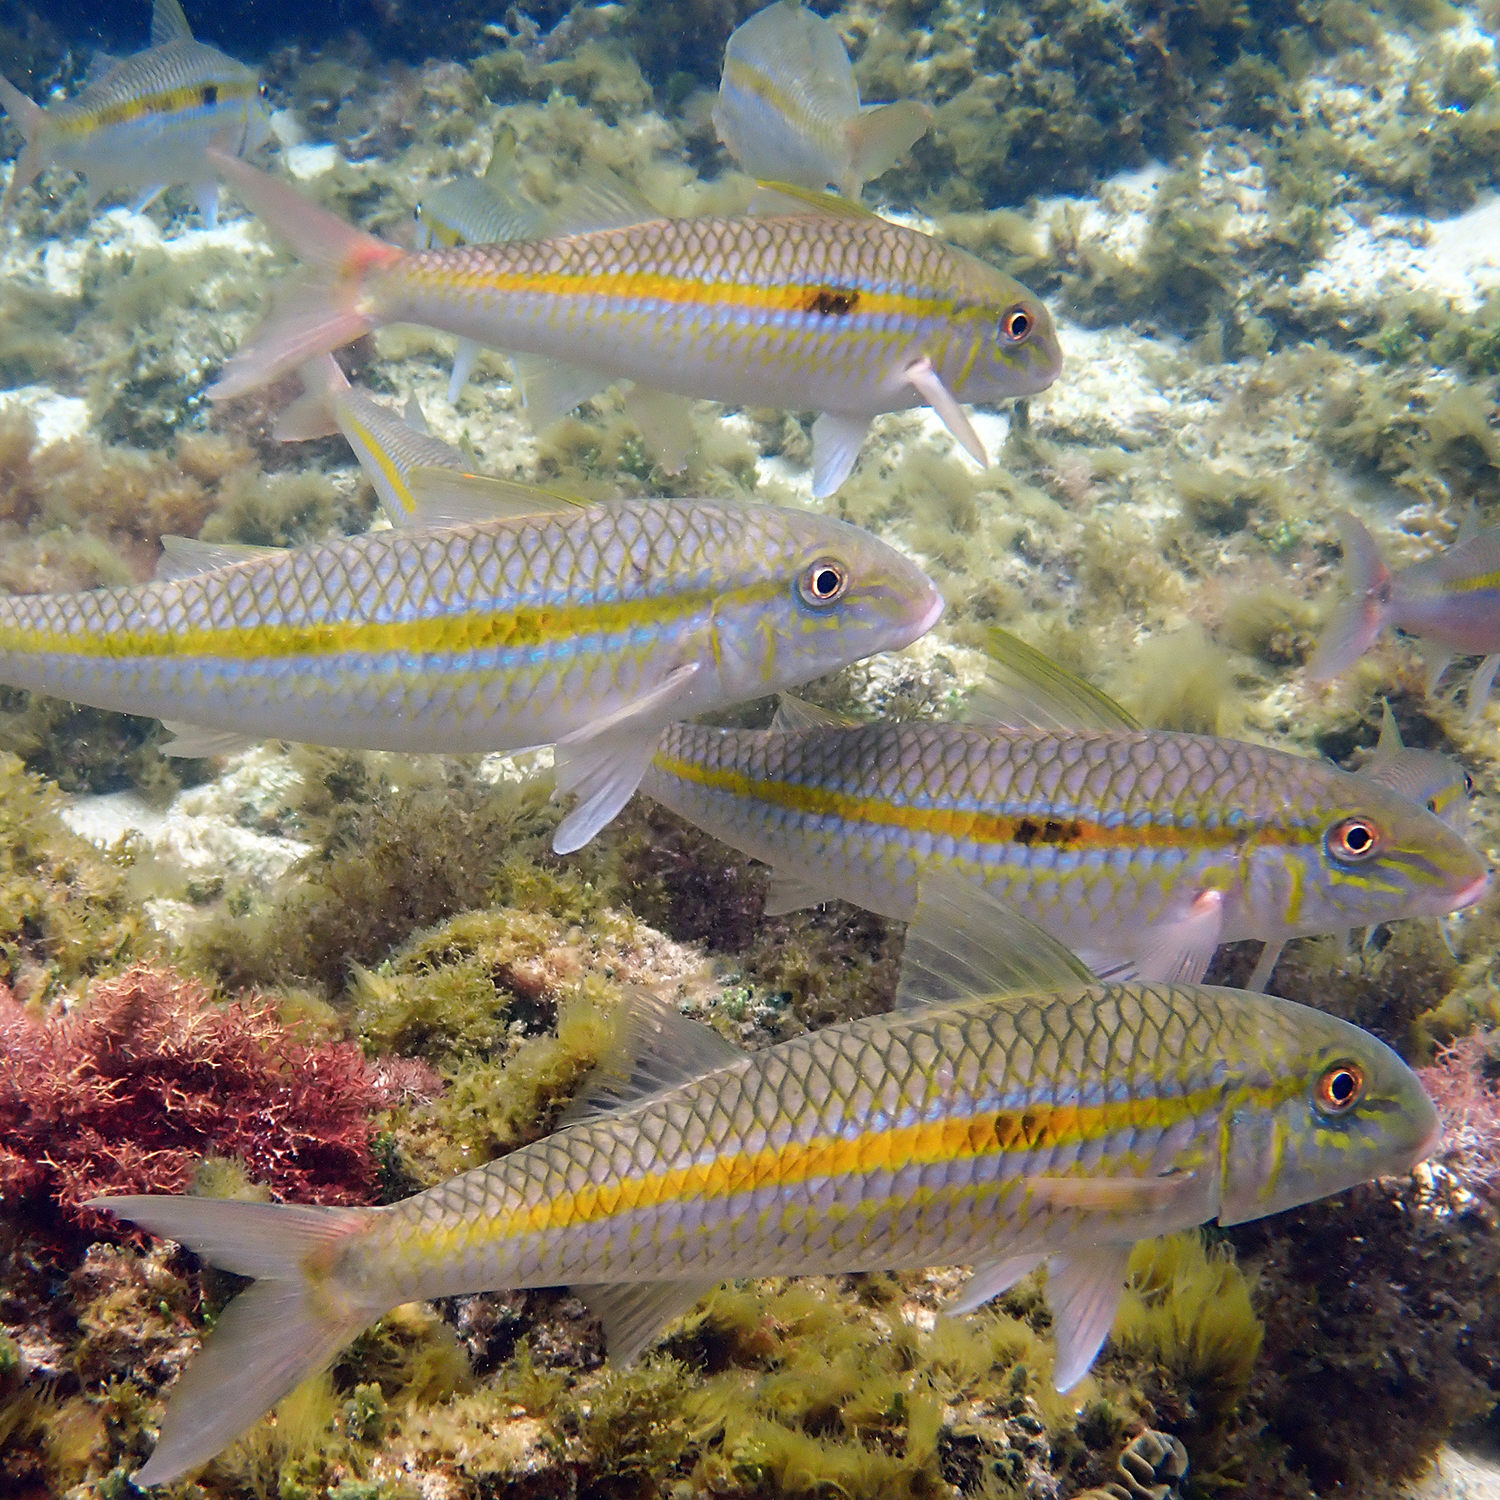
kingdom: Animalia
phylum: Chordata
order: Perciformes
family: Mullidae
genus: Mulloidichthys
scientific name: Mulloidichthys flavolineatus
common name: Yellowstripe goatfish
